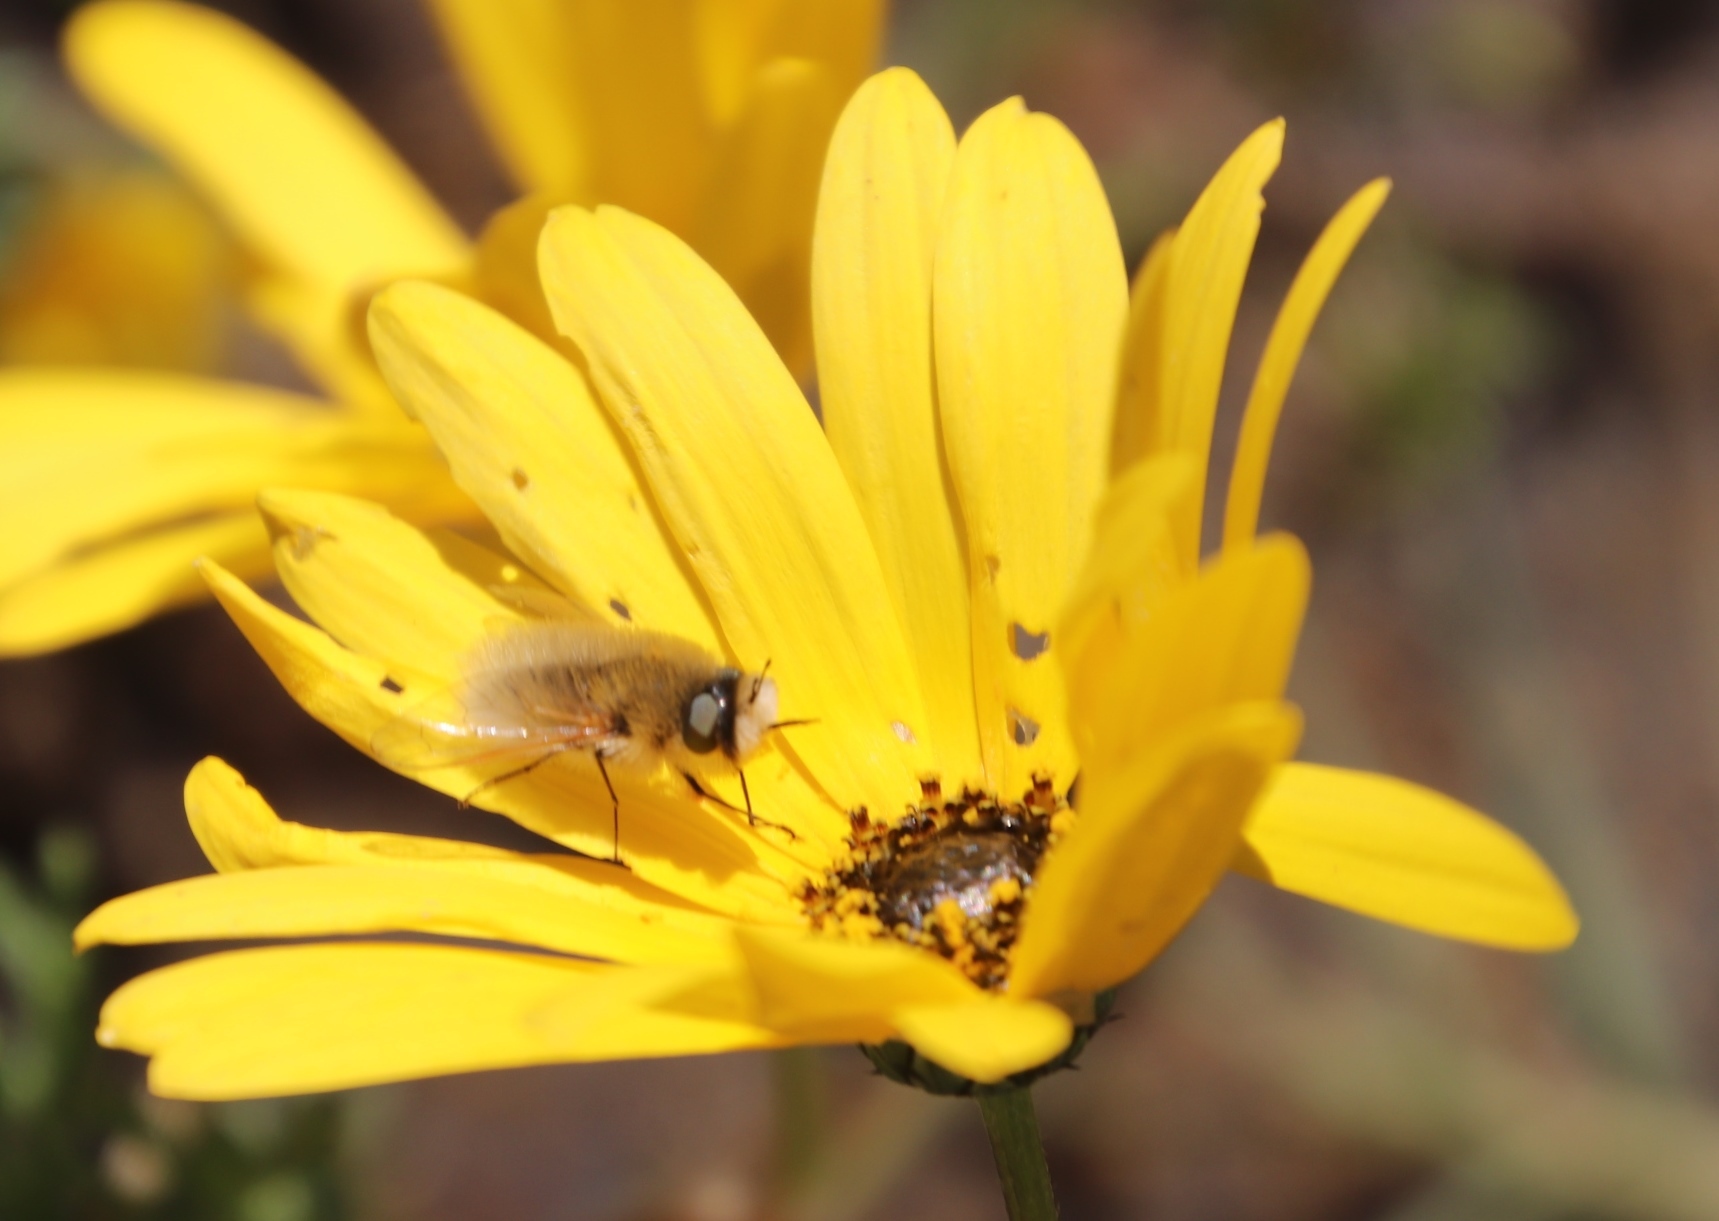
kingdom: Animalia
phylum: Arthropoda
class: Insecta
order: Diptera
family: Bombyliidae
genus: Corsomyza
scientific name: Corsomyza tricellulata
